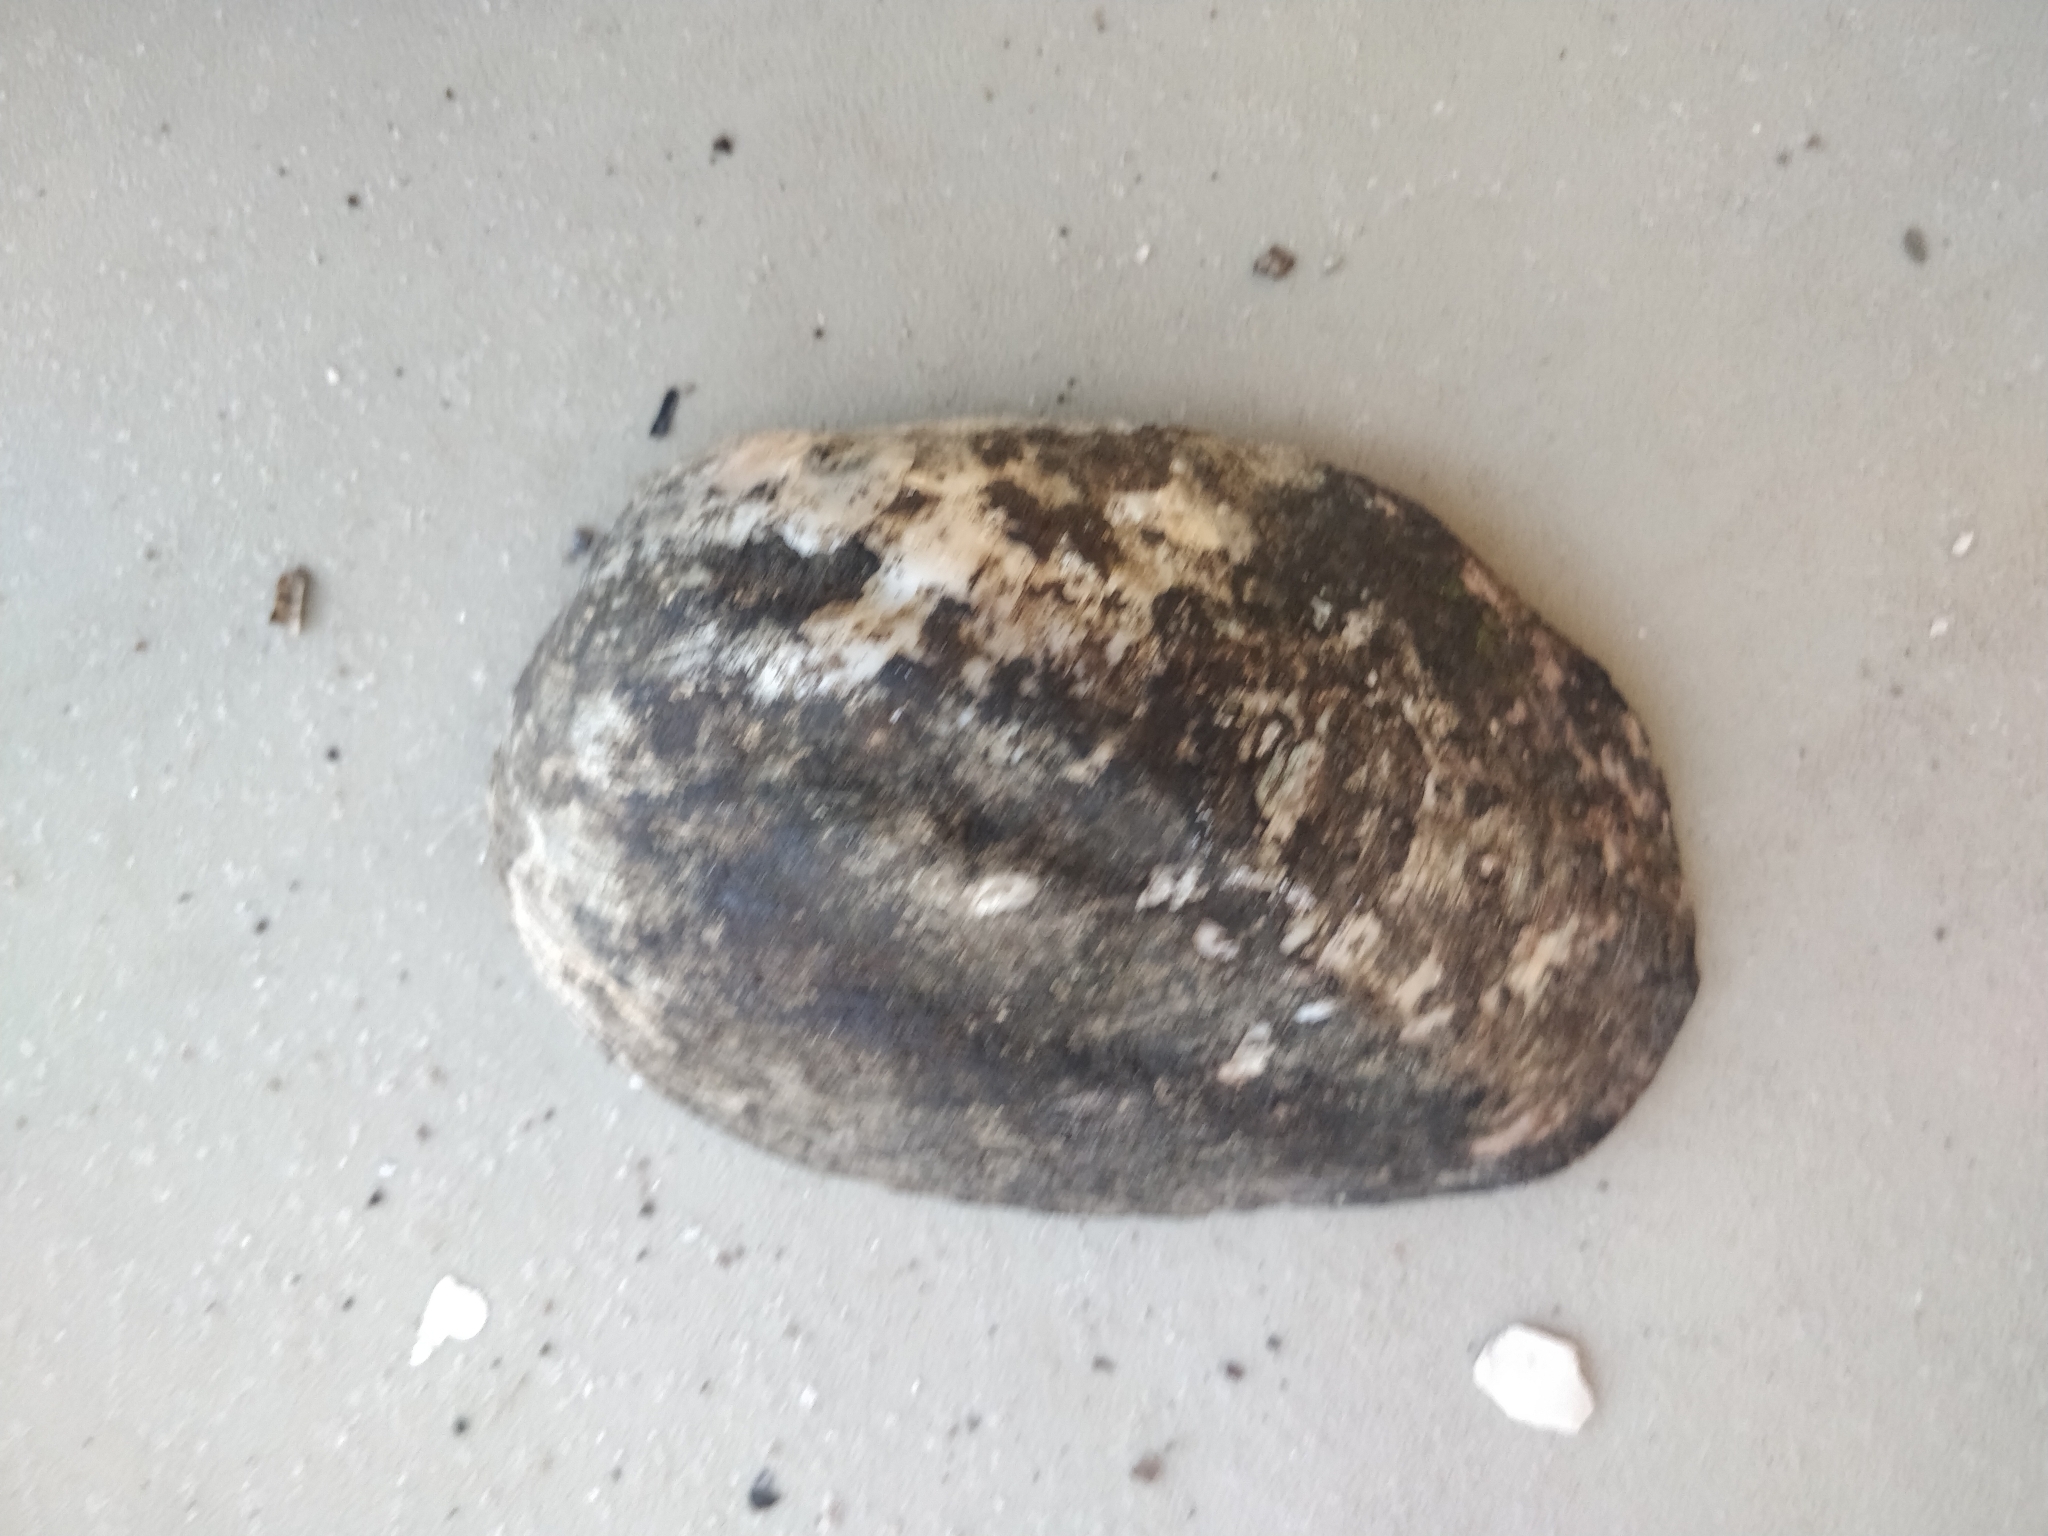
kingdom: Animalia
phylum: Mollusca
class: Bivalvia
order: Unionida
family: Unionidae
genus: Amblema
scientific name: Amblema plicata
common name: Threeridge
